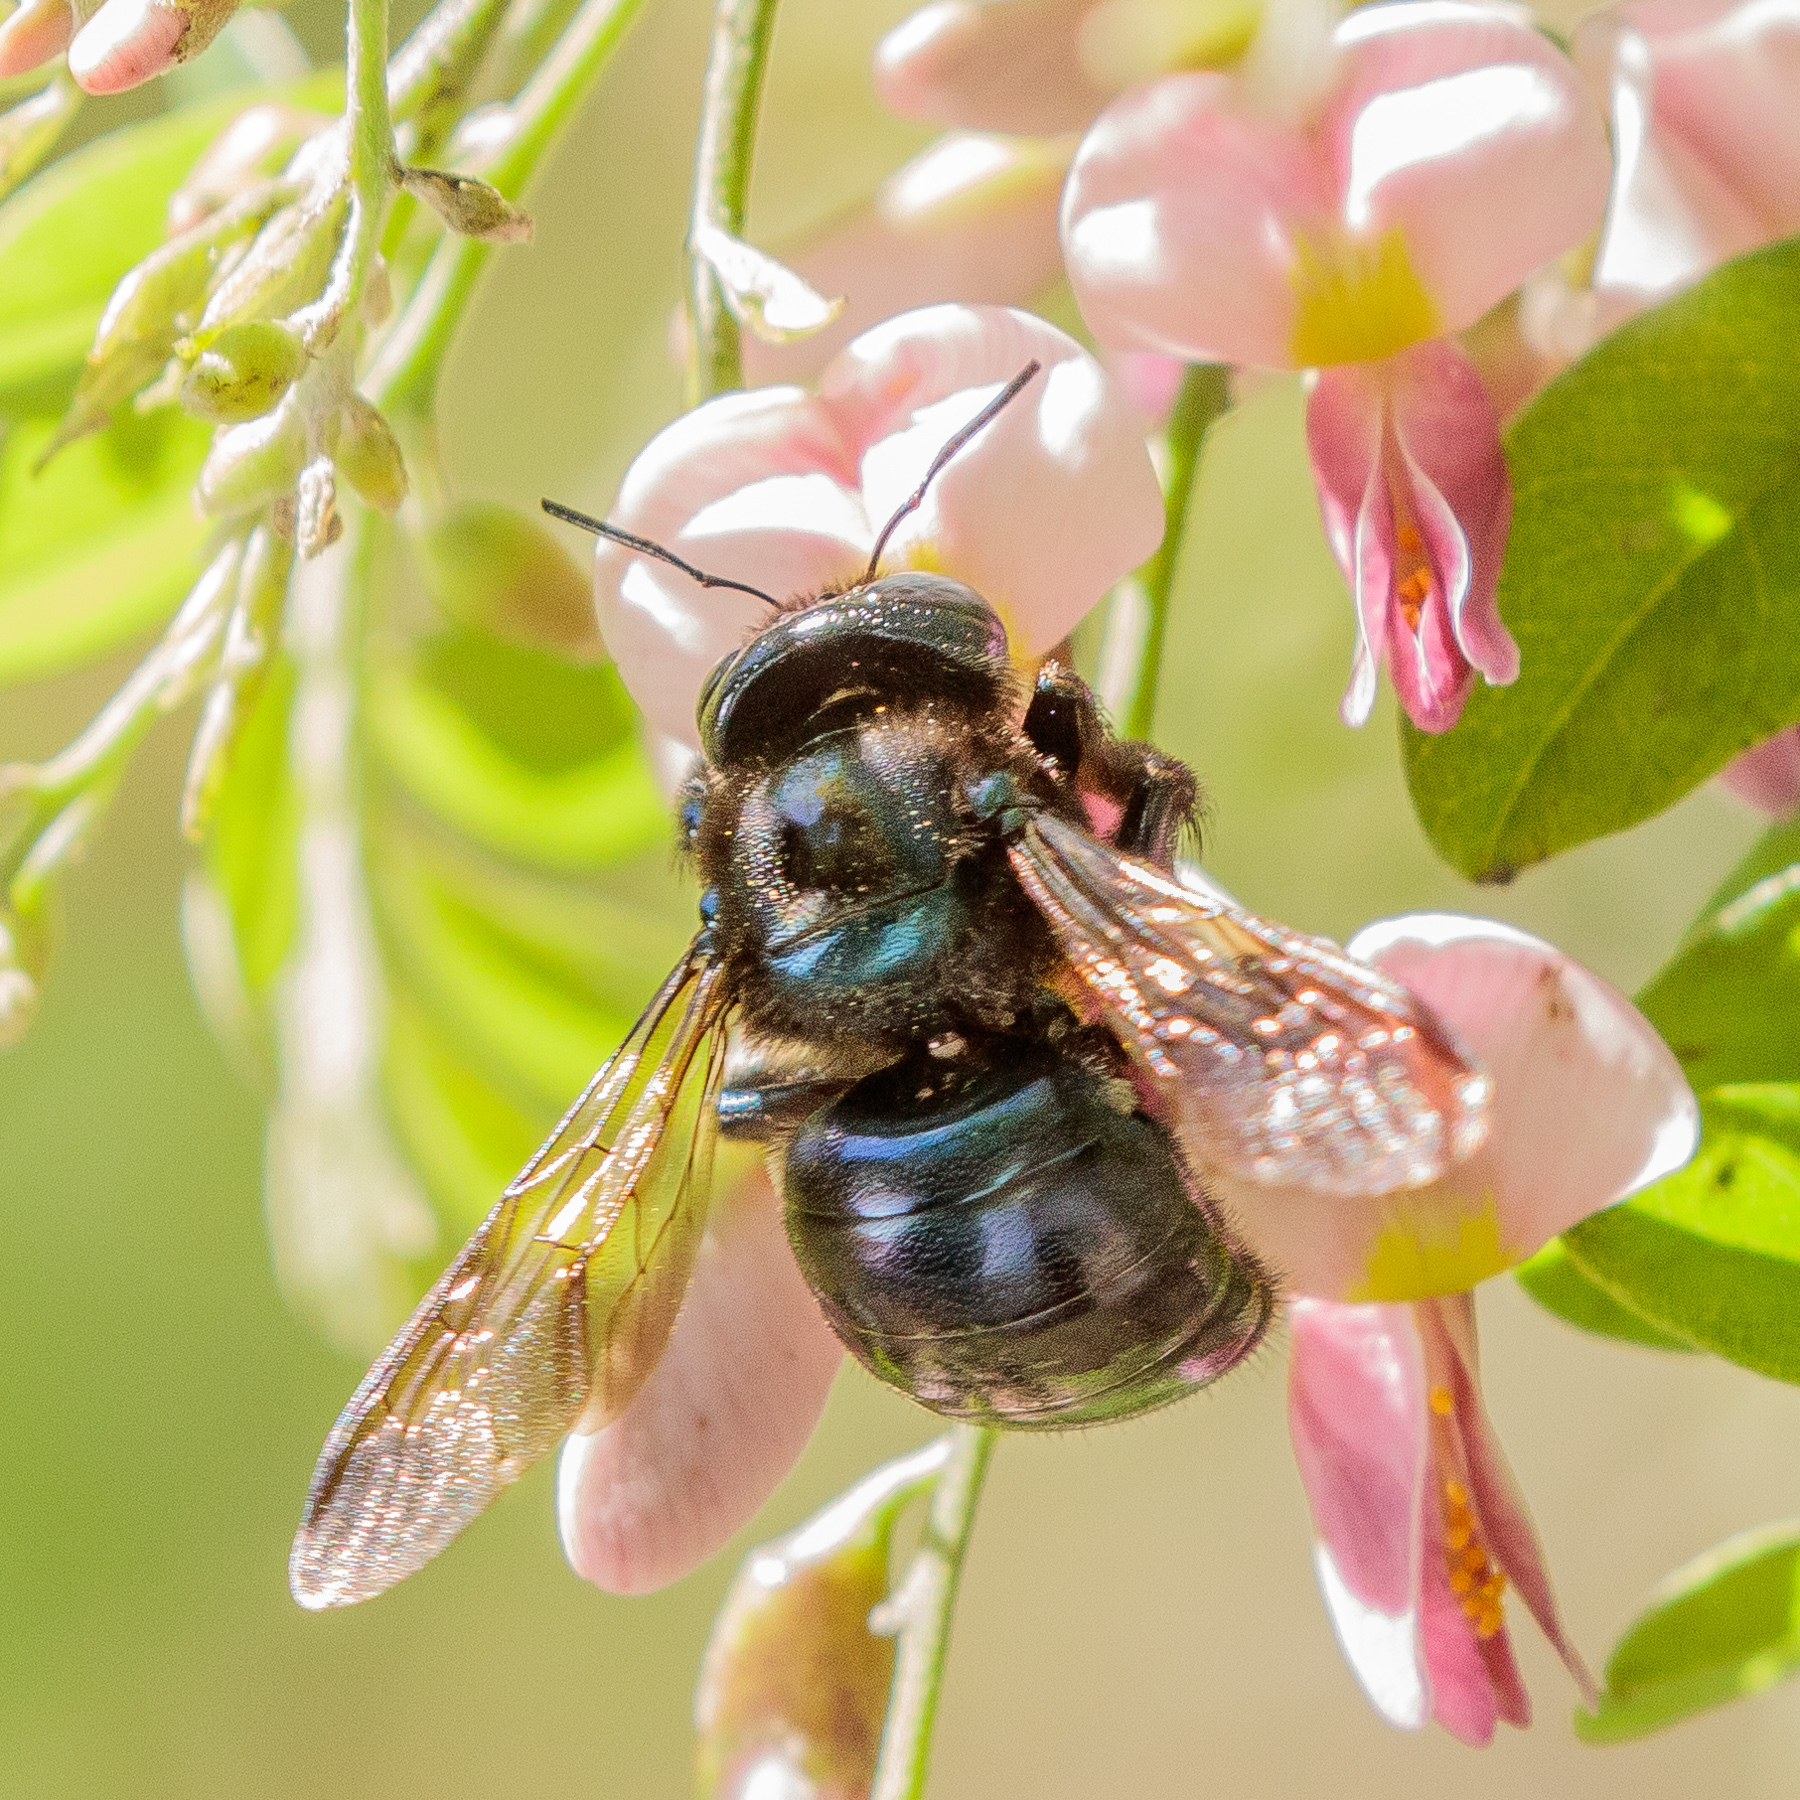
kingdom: Animalia
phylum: Arthropoda
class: Insecta
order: Hymenoptera
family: Apidae
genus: Xylocopa
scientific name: Xylocopa micans
